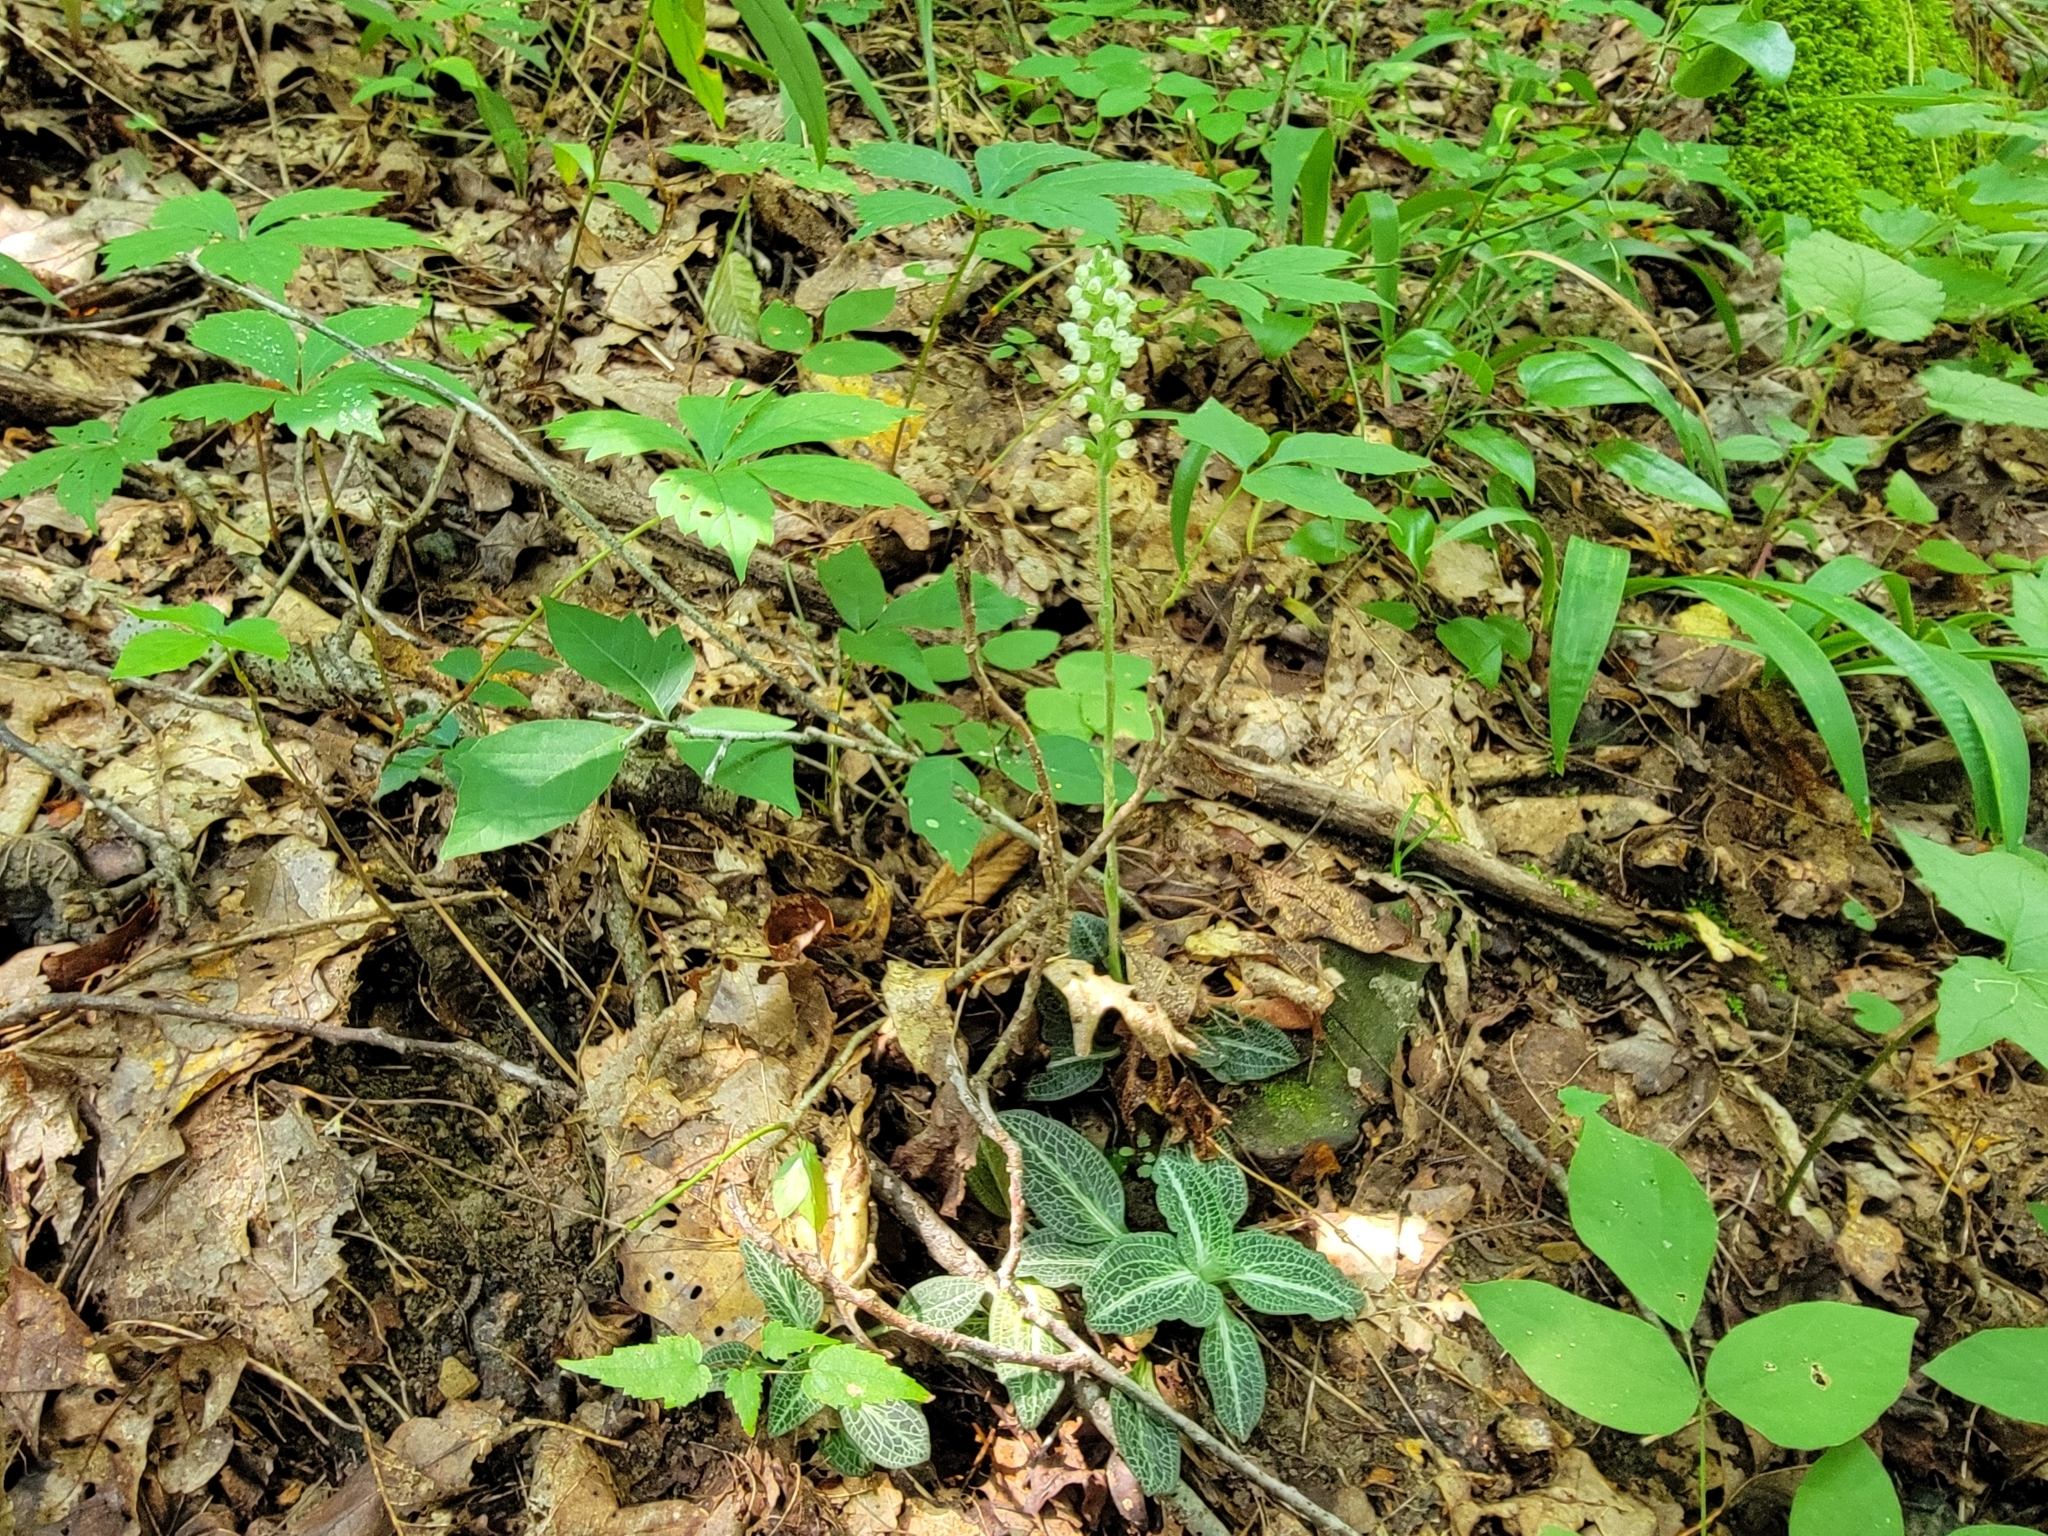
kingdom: Plantae
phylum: Tracheophyta
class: Liliopsida
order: Asparagales
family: Orchidaceae
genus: Goodyera
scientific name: Goodyera pubescens
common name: Downy rattlesnake-plantain
